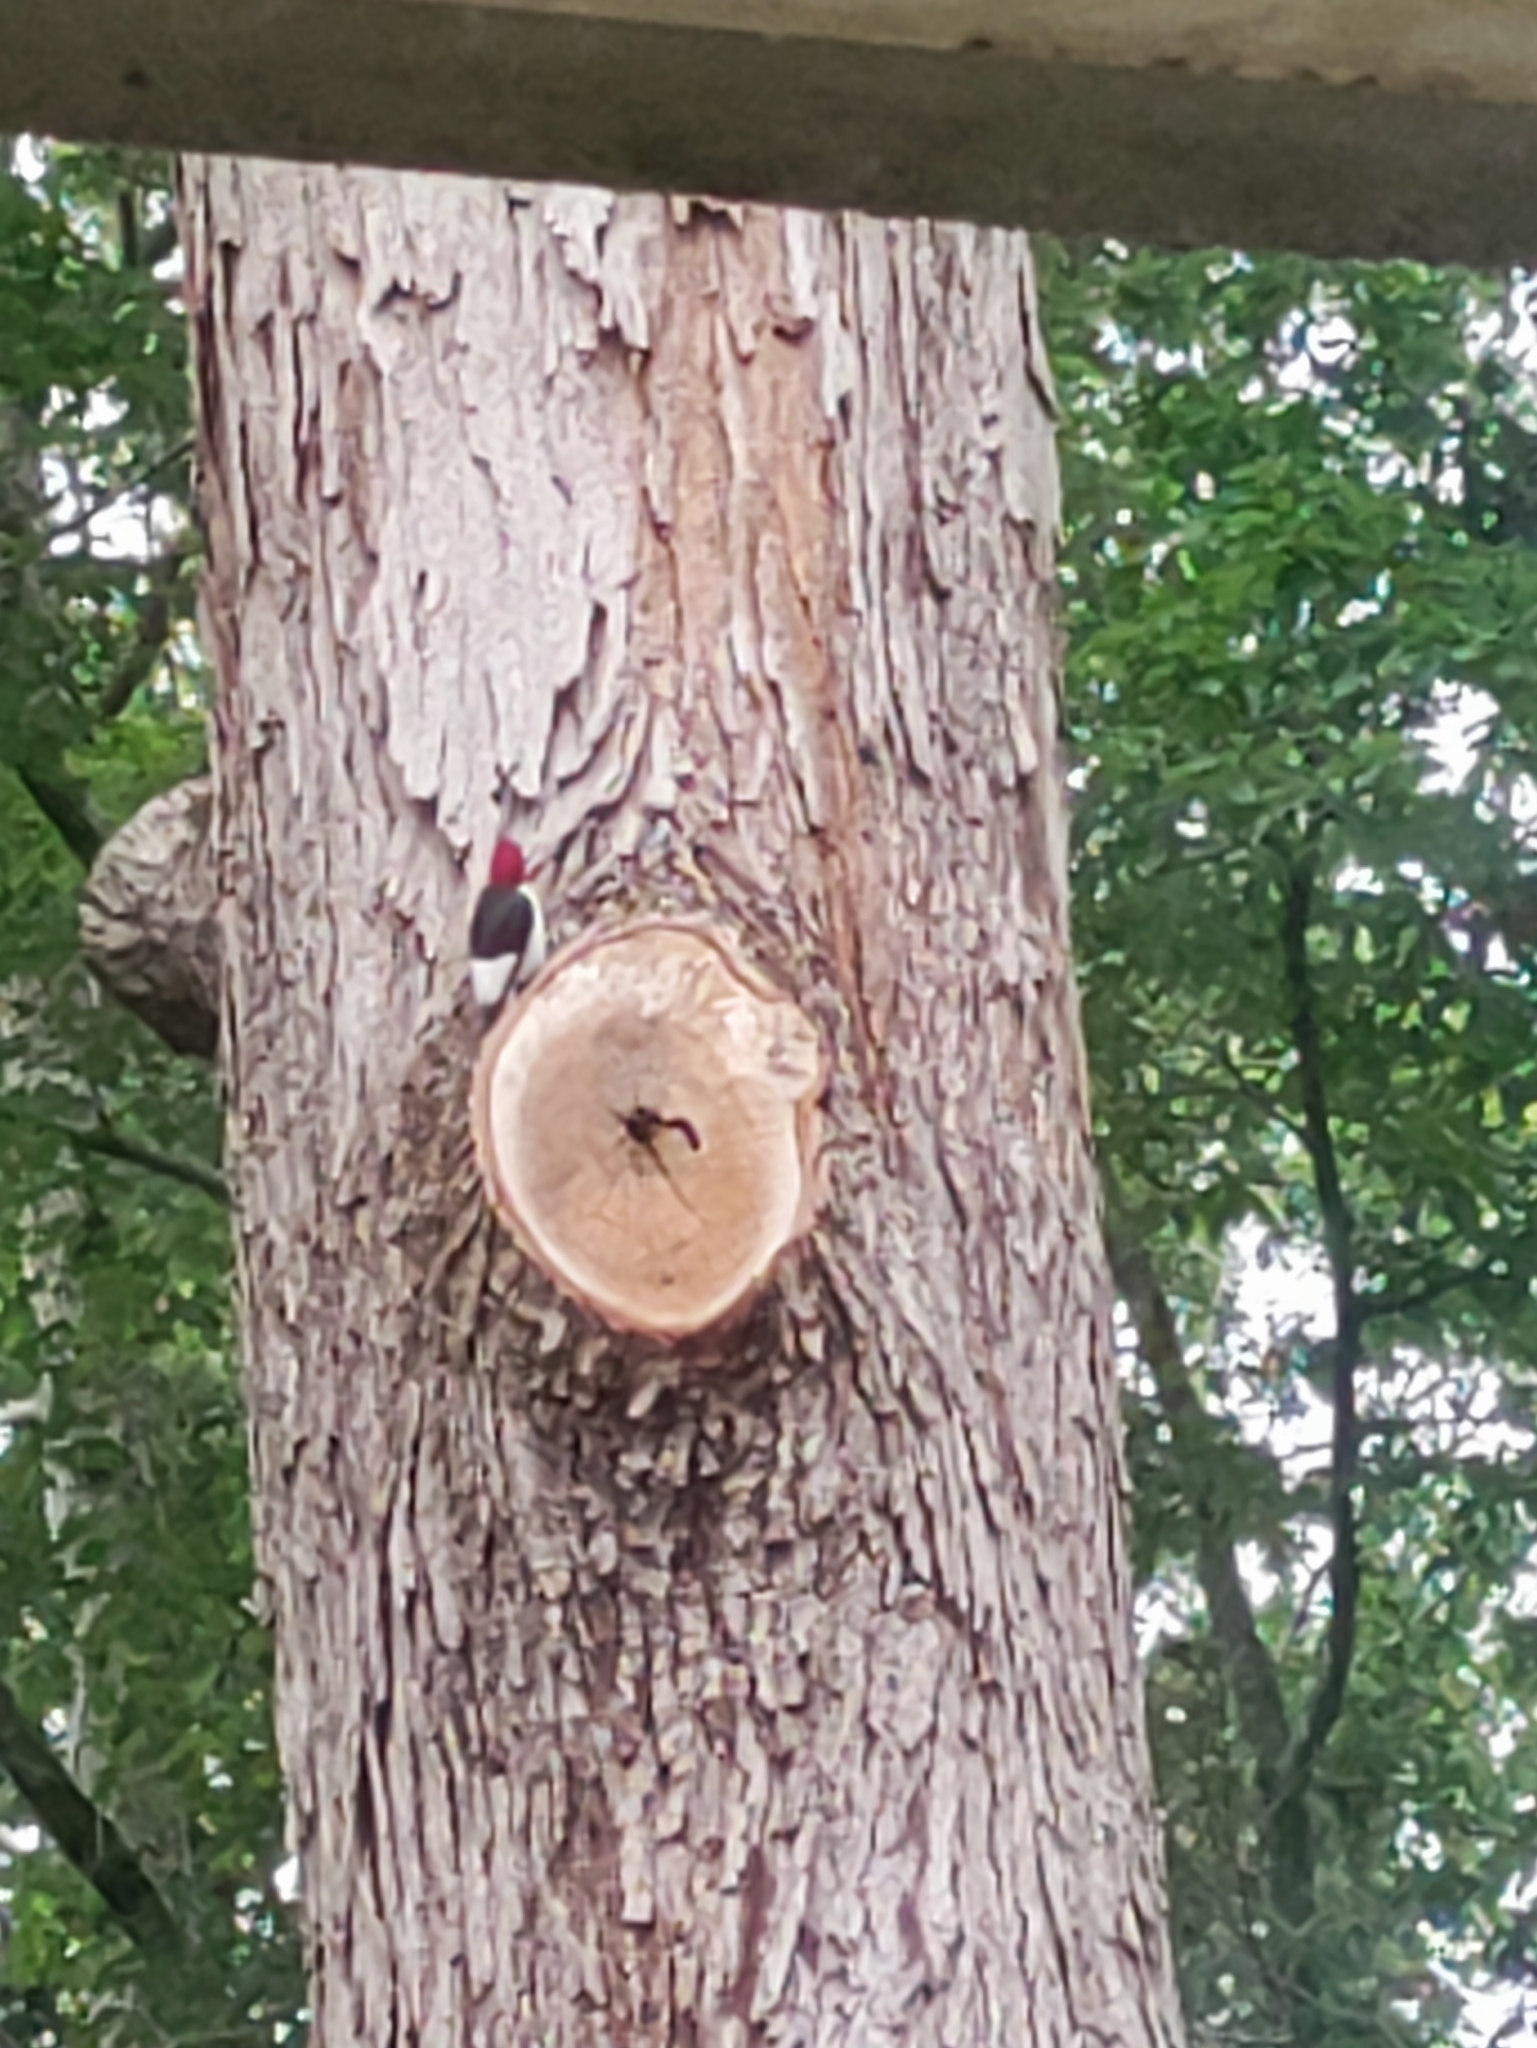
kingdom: Animalia
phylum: Chordata
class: Aves
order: Piciformes
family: Picidae
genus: Melanerpes
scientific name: Melanerpes erythrocephalus
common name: Red-headed woodpecker
